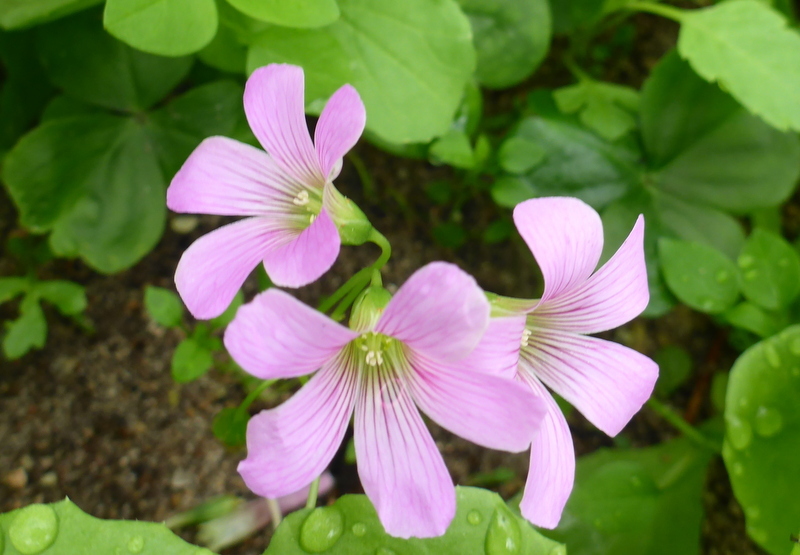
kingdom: Plantae
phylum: Tracheophyta
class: Magnoliopsida
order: Oxalidales
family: Oxalidaceae
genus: Oxalis
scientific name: Oxalis debilis
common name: Large-flowered pink-sorrel
